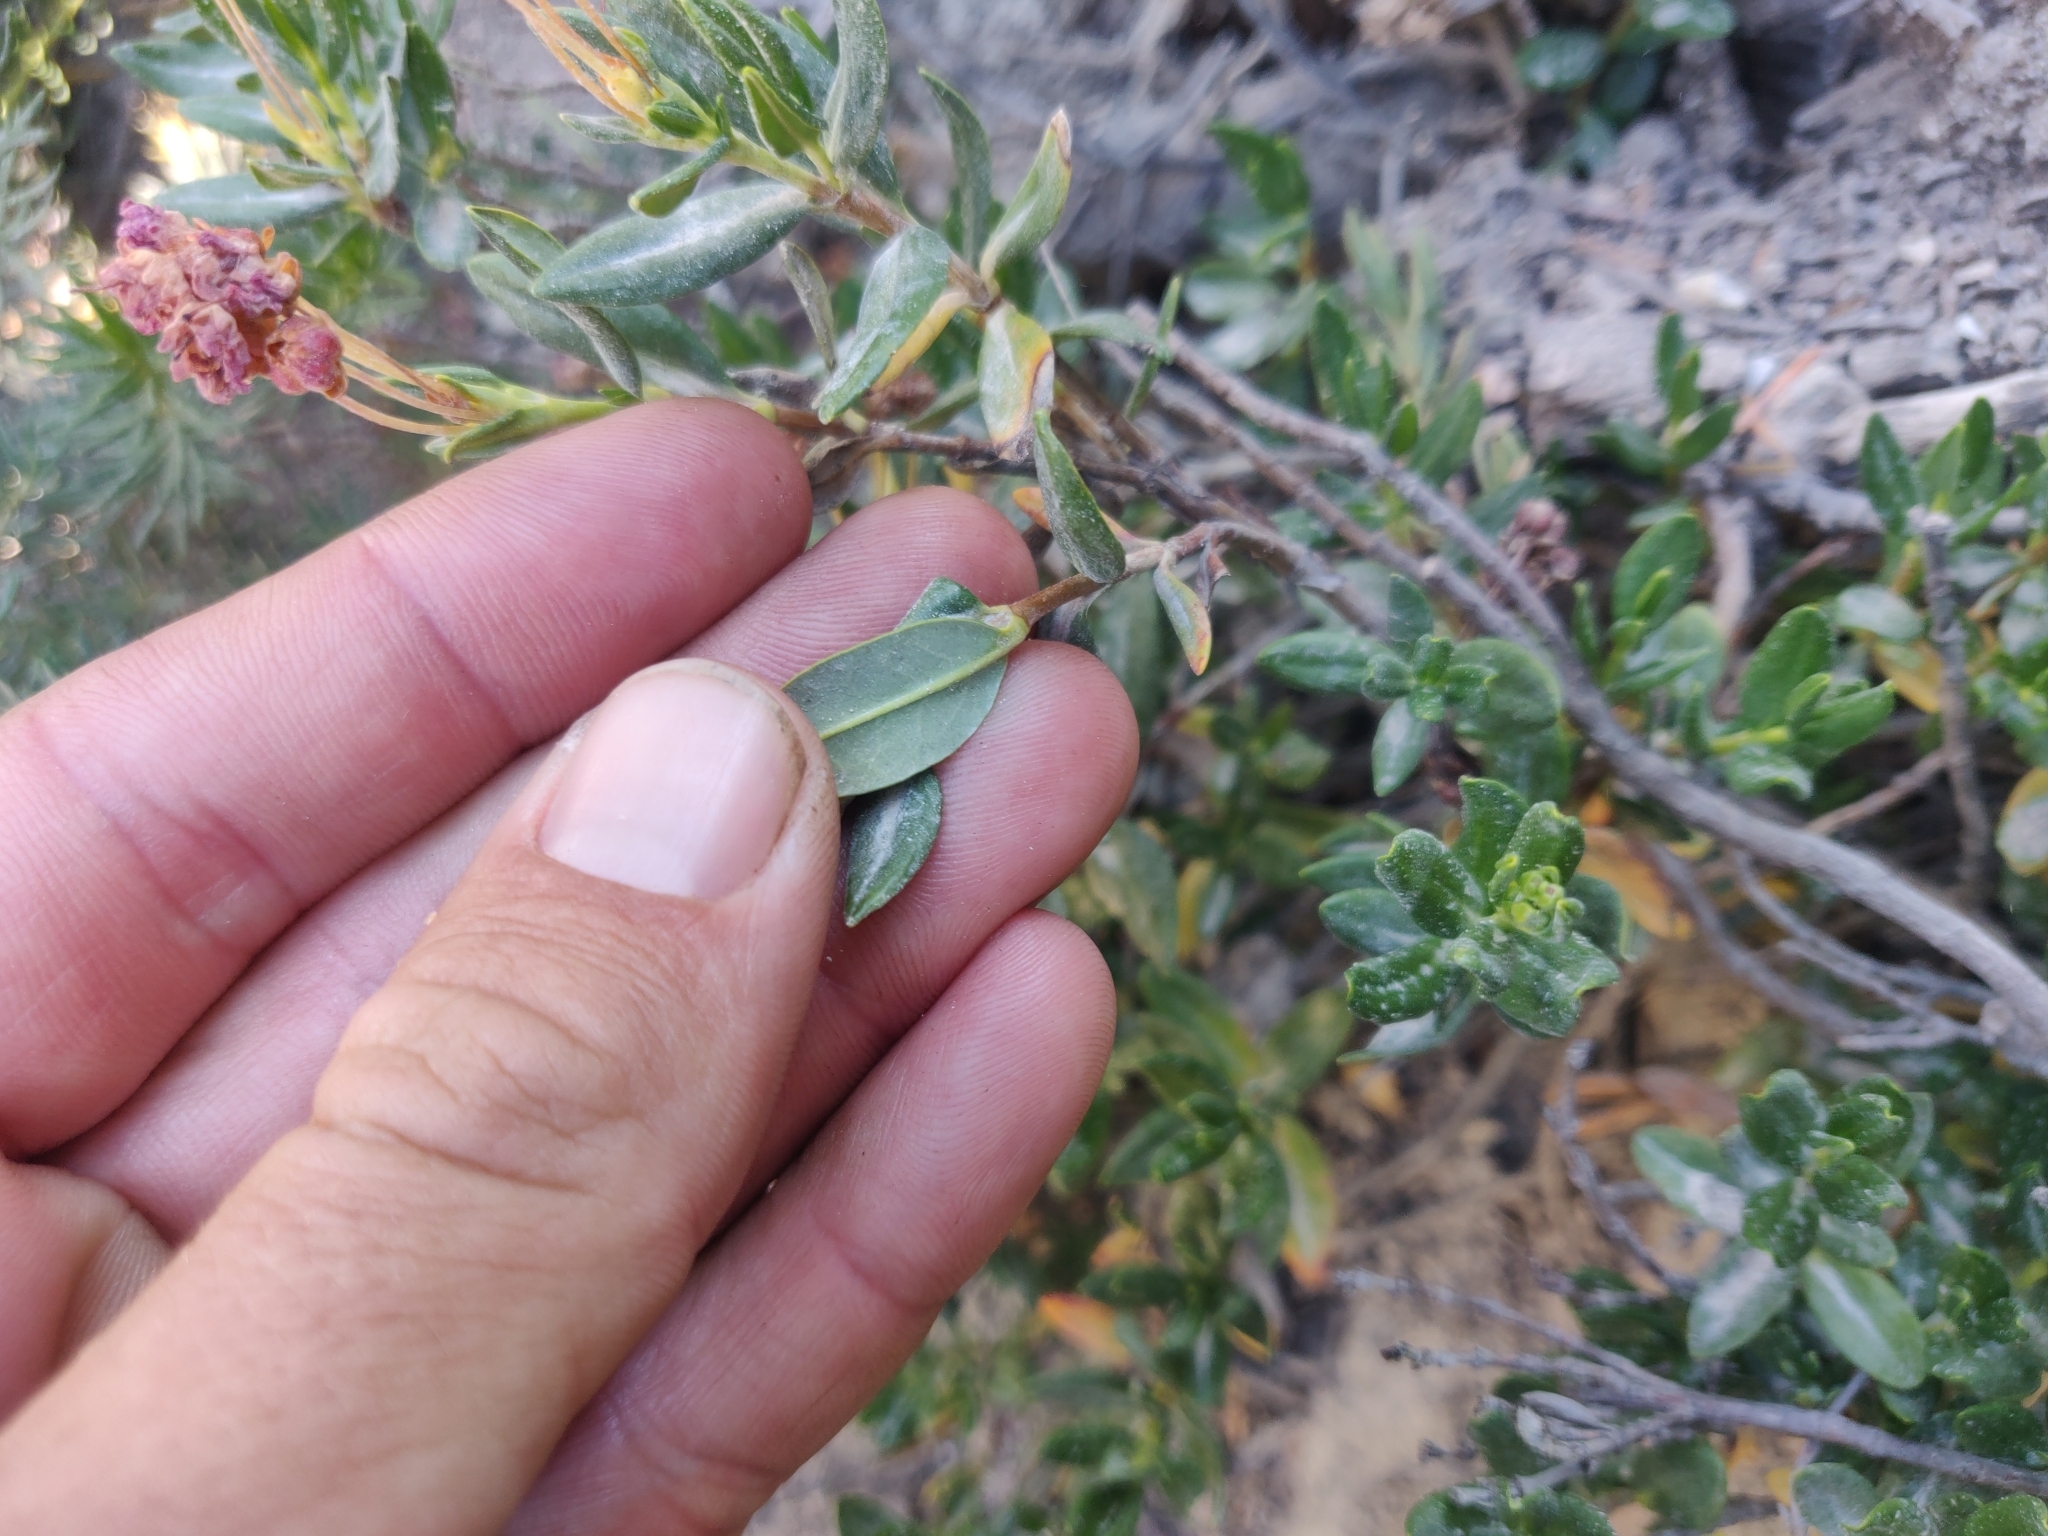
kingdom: Plantae
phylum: Tracheophyta
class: Magnoliopsida
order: Rosales
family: Rosaceae
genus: Cercocarpus
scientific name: Cercocarpus ledifolius
